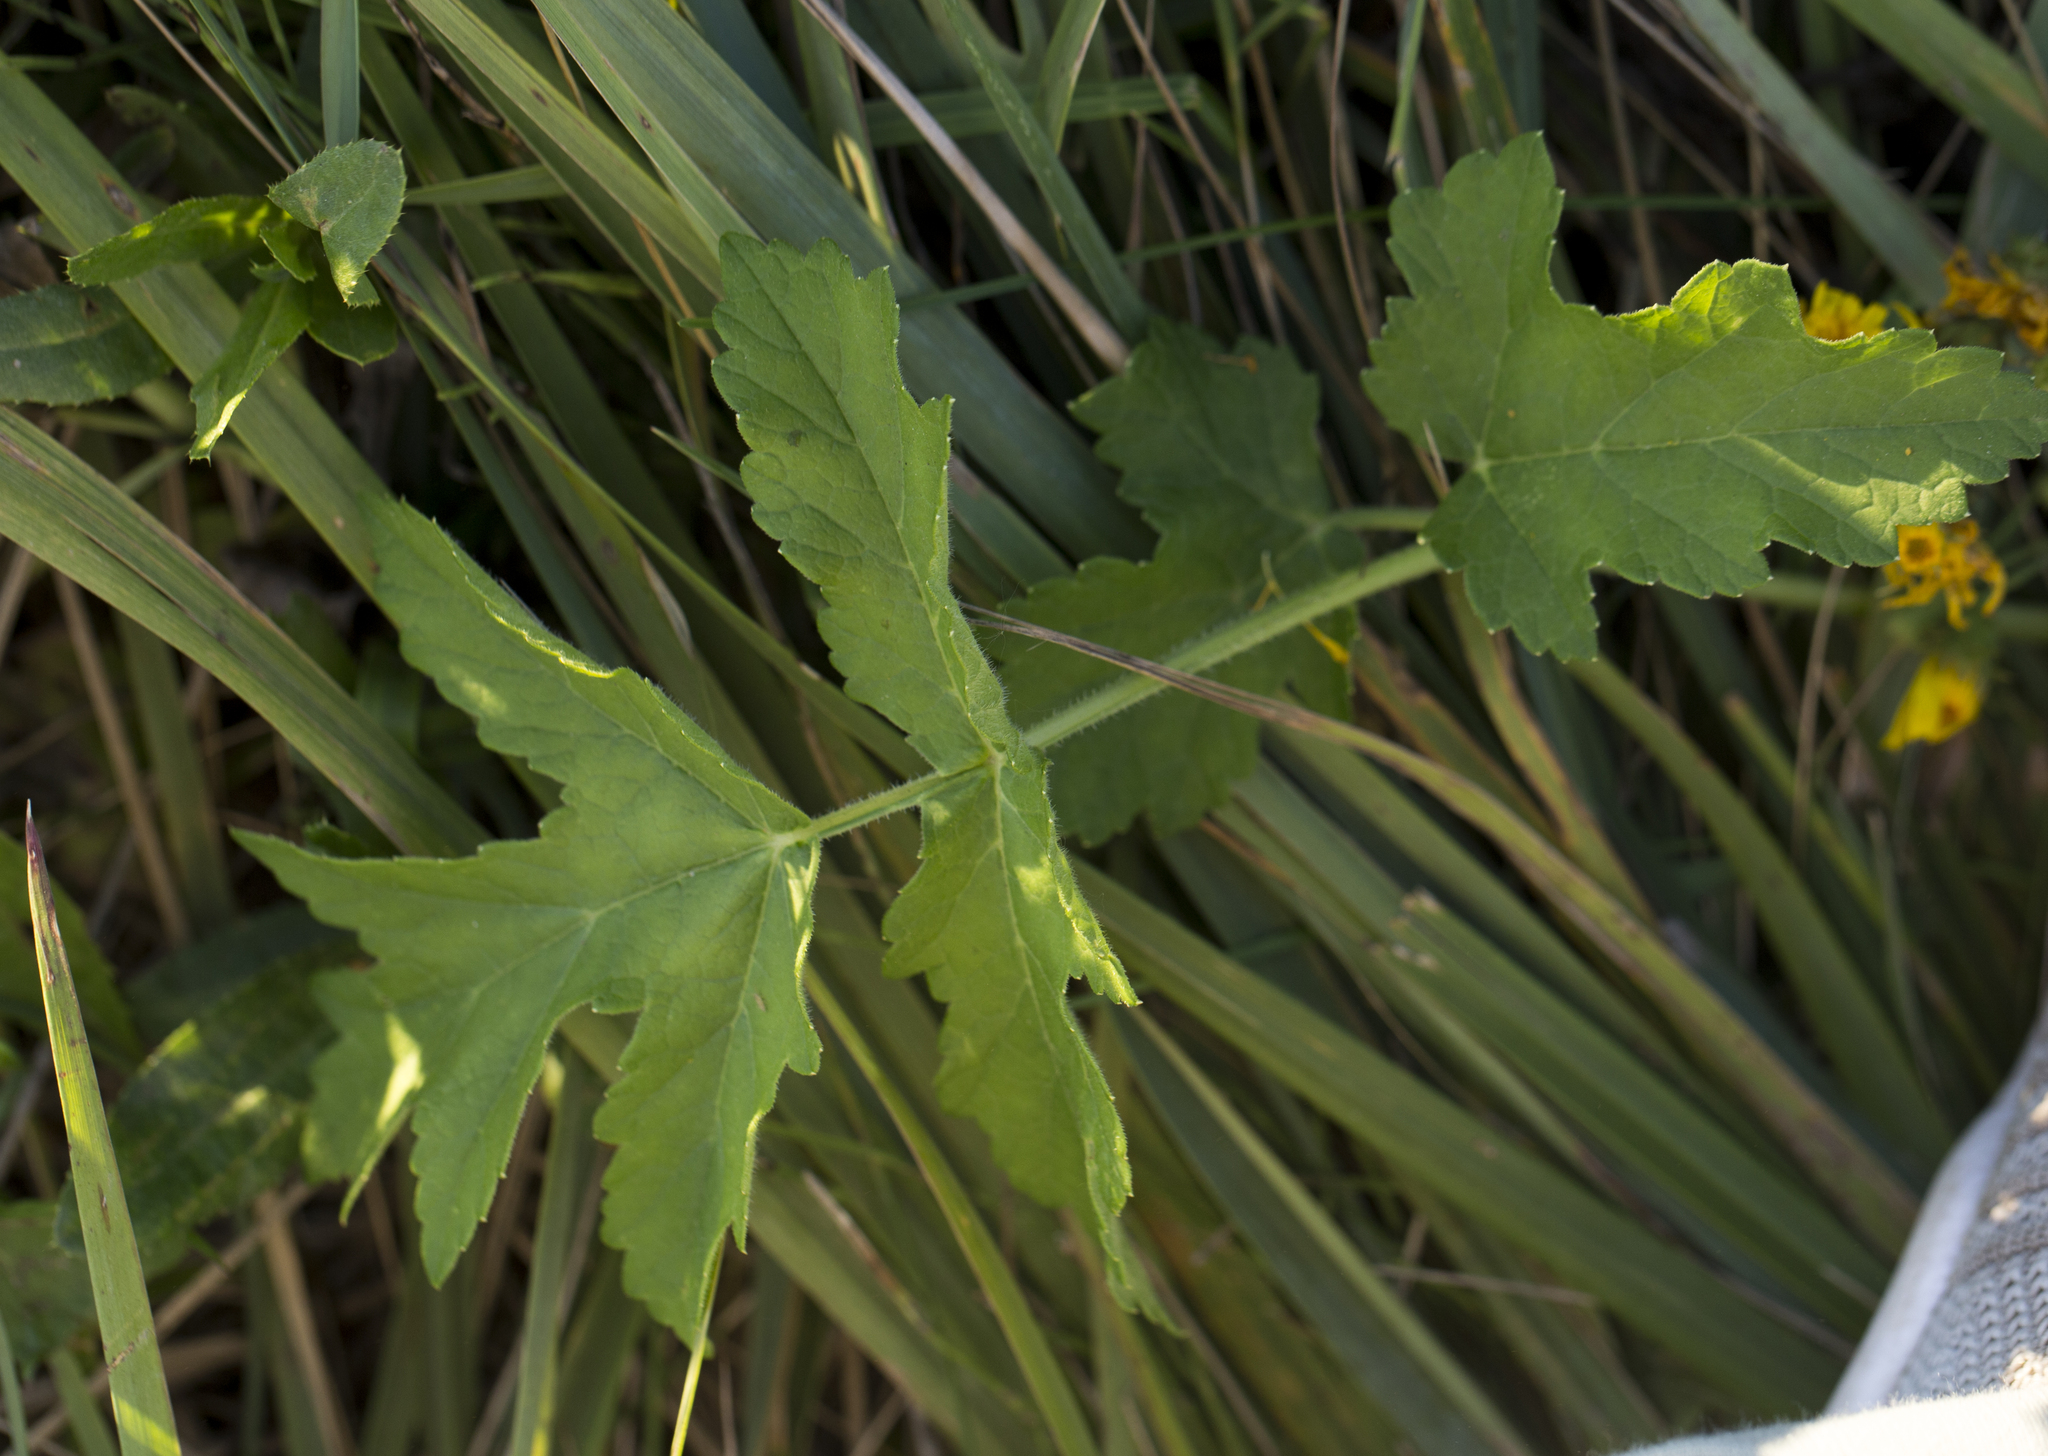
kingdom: Plantae
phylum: Tracheophyta
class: Magnoliopsida
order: Apiales
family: Apiaceae
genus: Heracleum
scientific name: Heracleum sphondylium
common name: Hogweed
